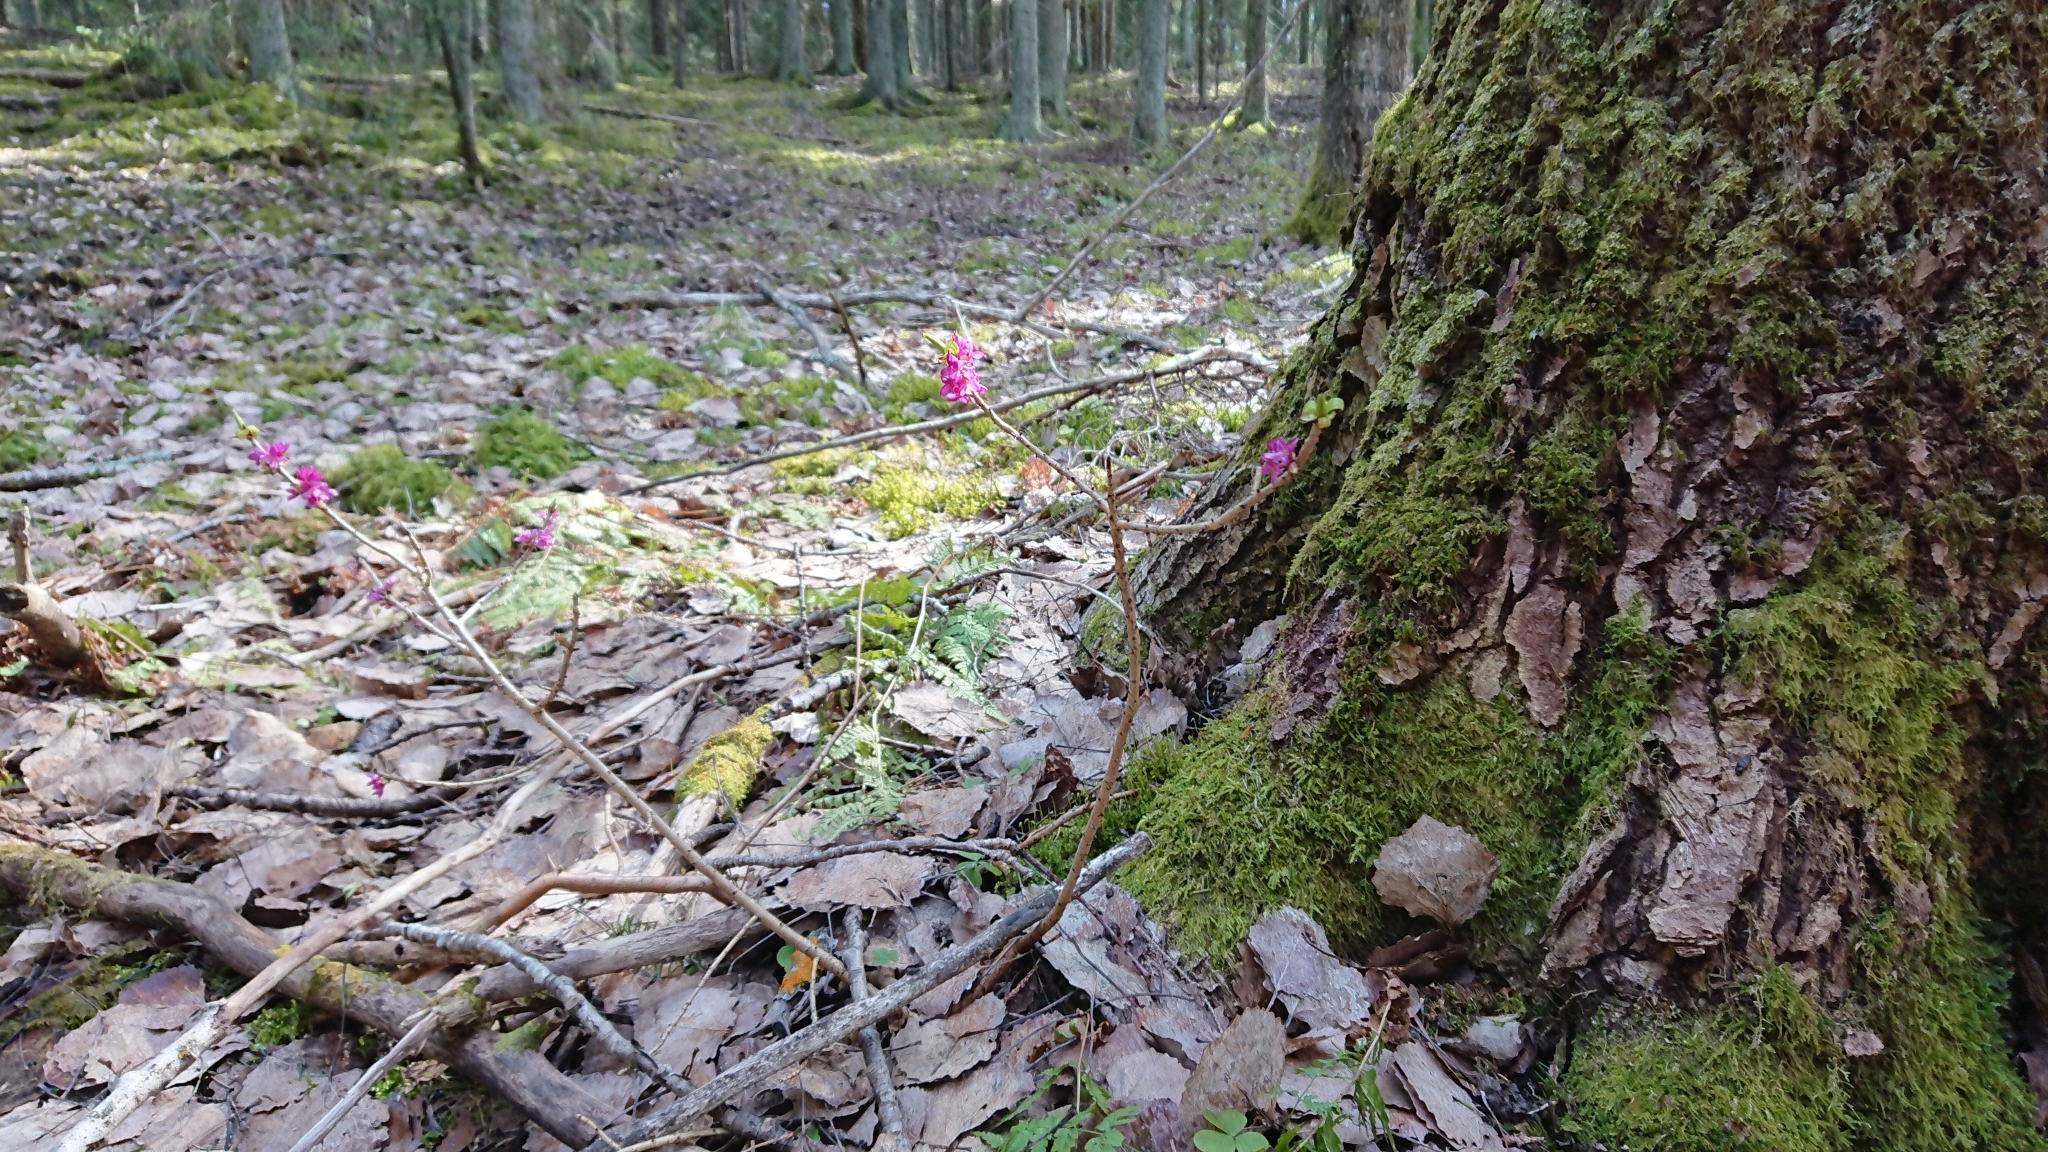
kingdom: Plantae
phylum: Tracheophyta
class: Magnoliopsida
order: Malvales
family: Thymelaeaceae
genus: Daphne
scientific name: Daphne mezereum
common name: Mezereon
